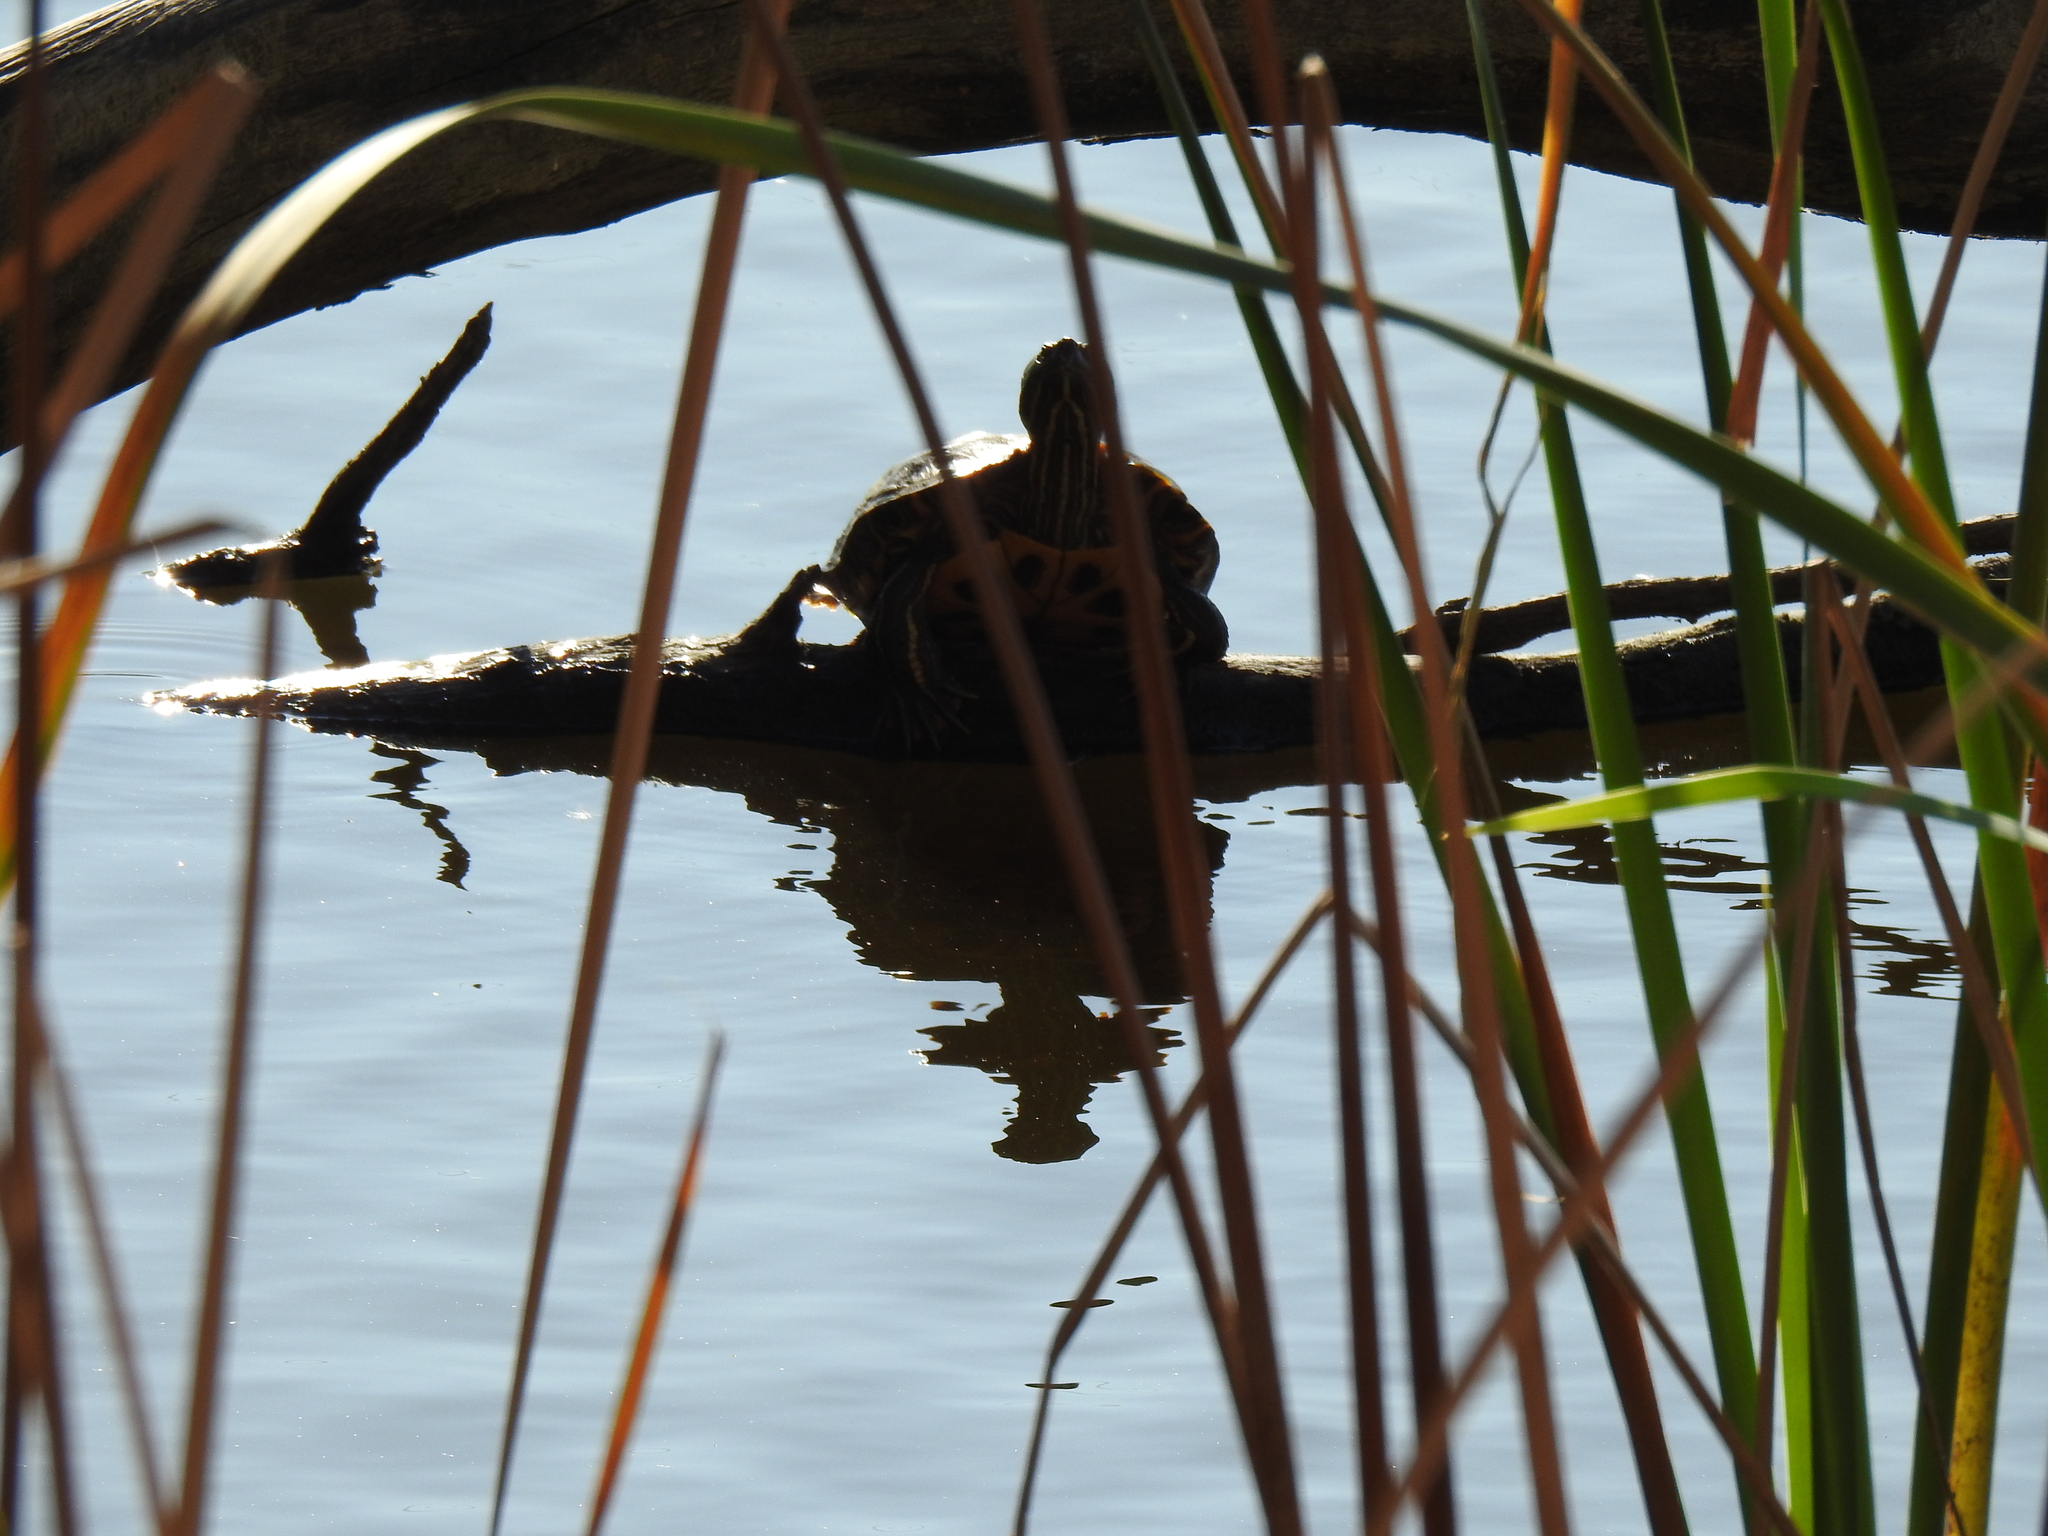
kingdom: Animalia
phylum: Chordata
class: Testudines
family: Emydidae
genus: Trachemys
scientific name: Trachemys scripta
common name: Slider
